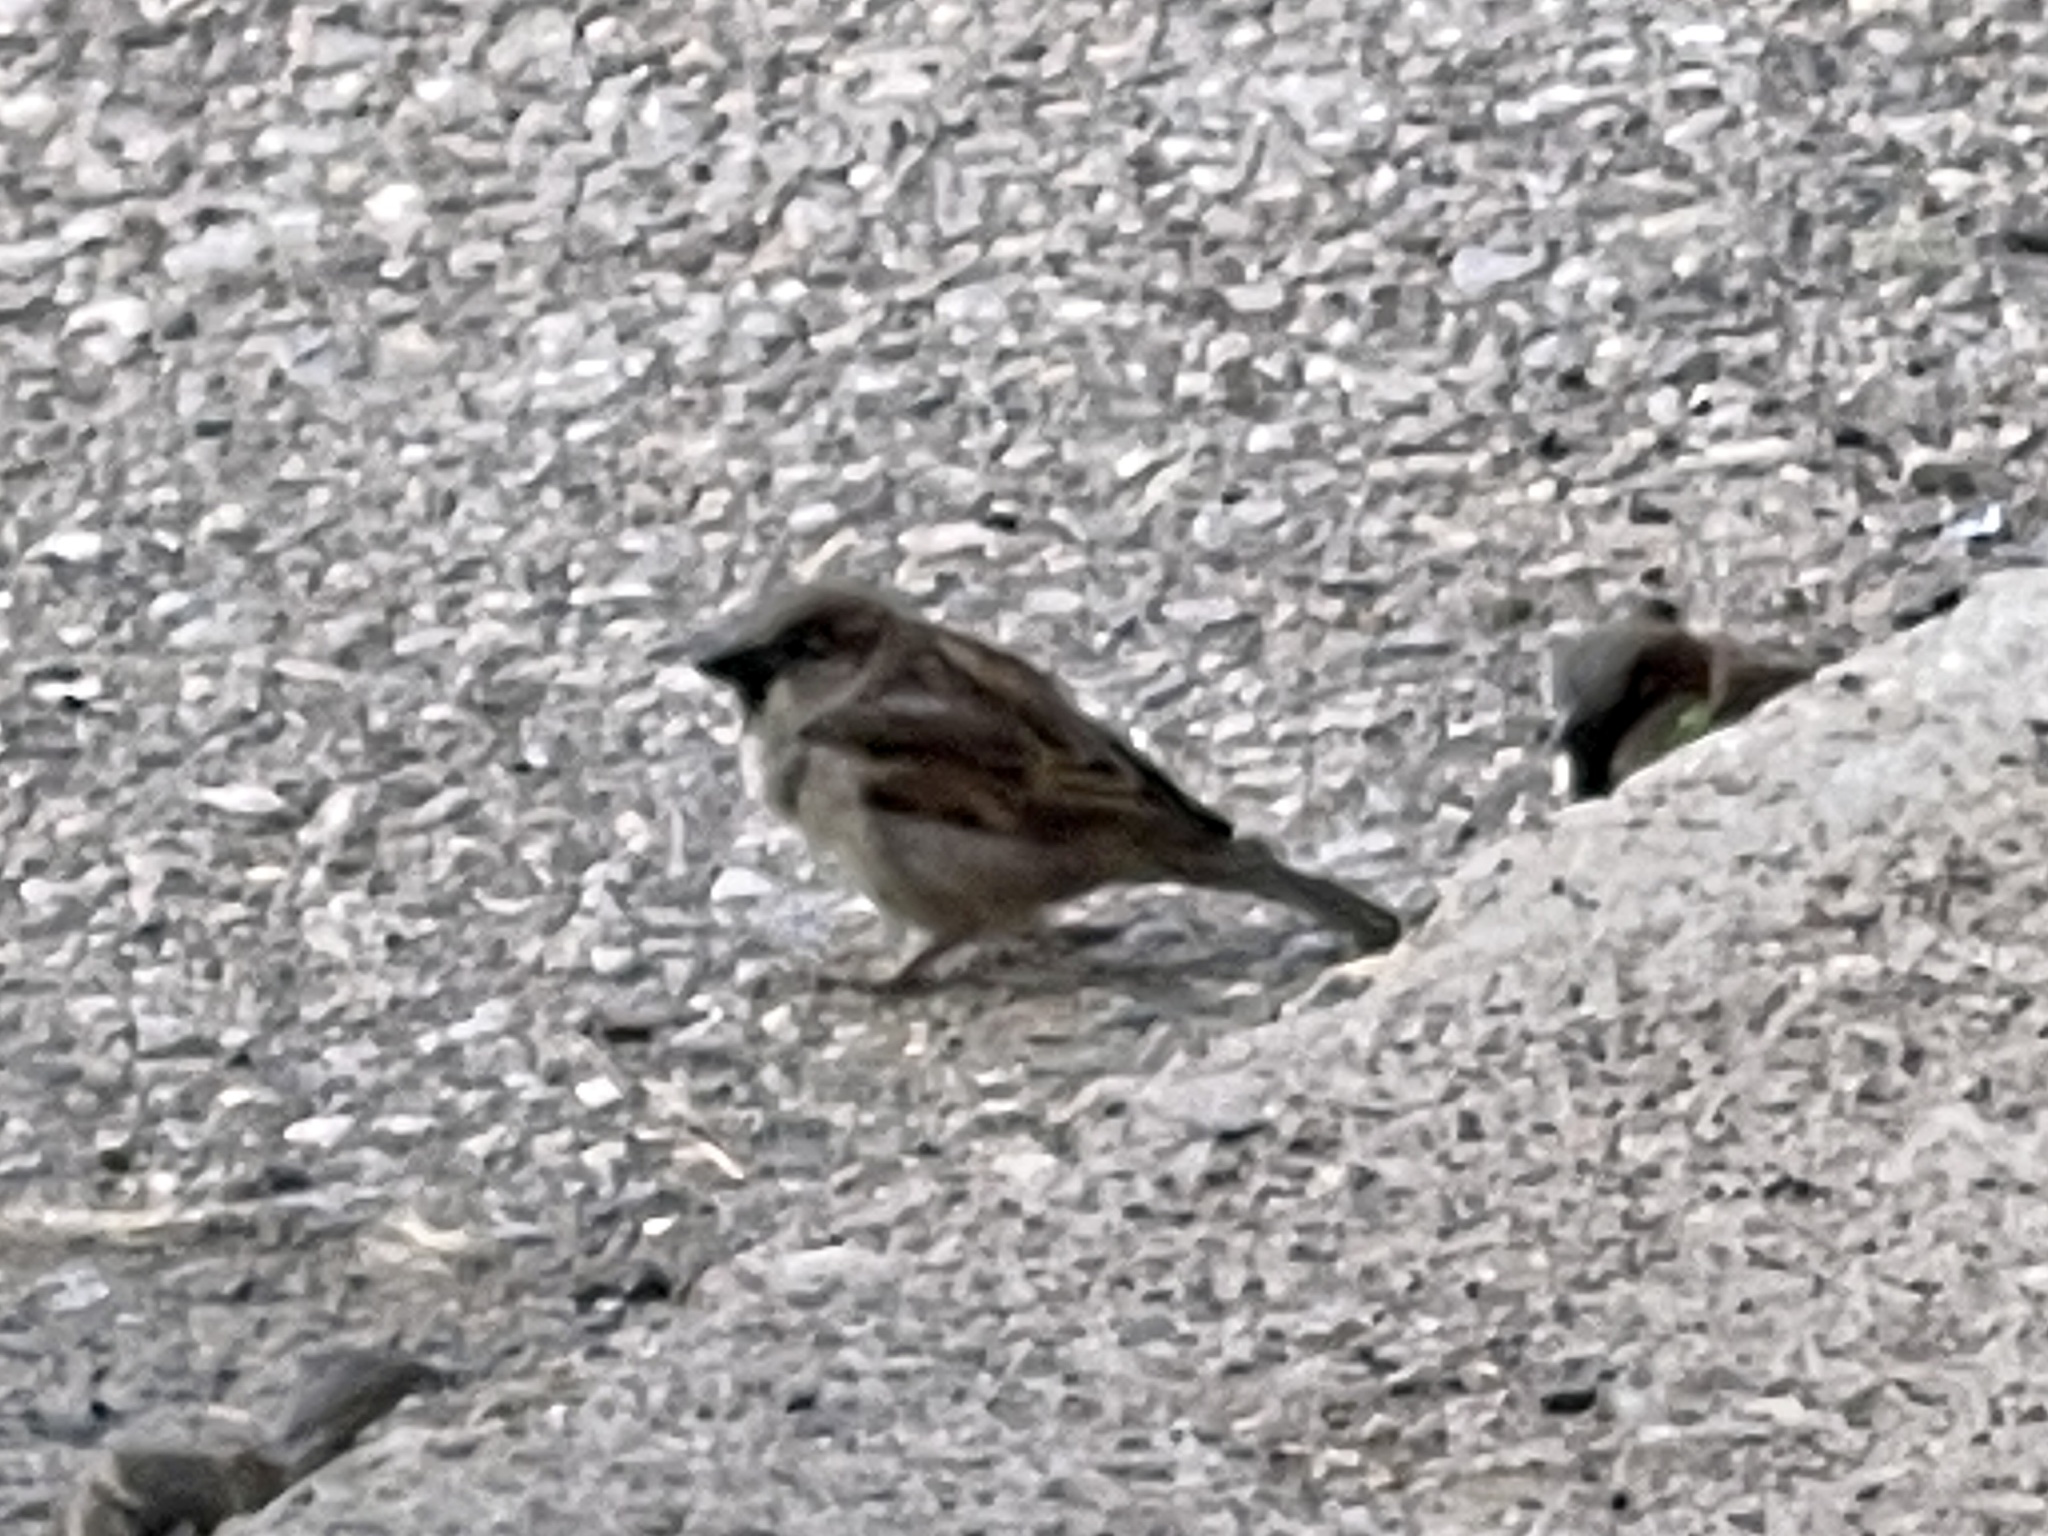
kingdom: Animalia
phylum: Chordata
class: Aves
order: Passeriformes
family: Passeridae
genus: Passer
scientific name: Passer domesticus
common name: House sparrow
